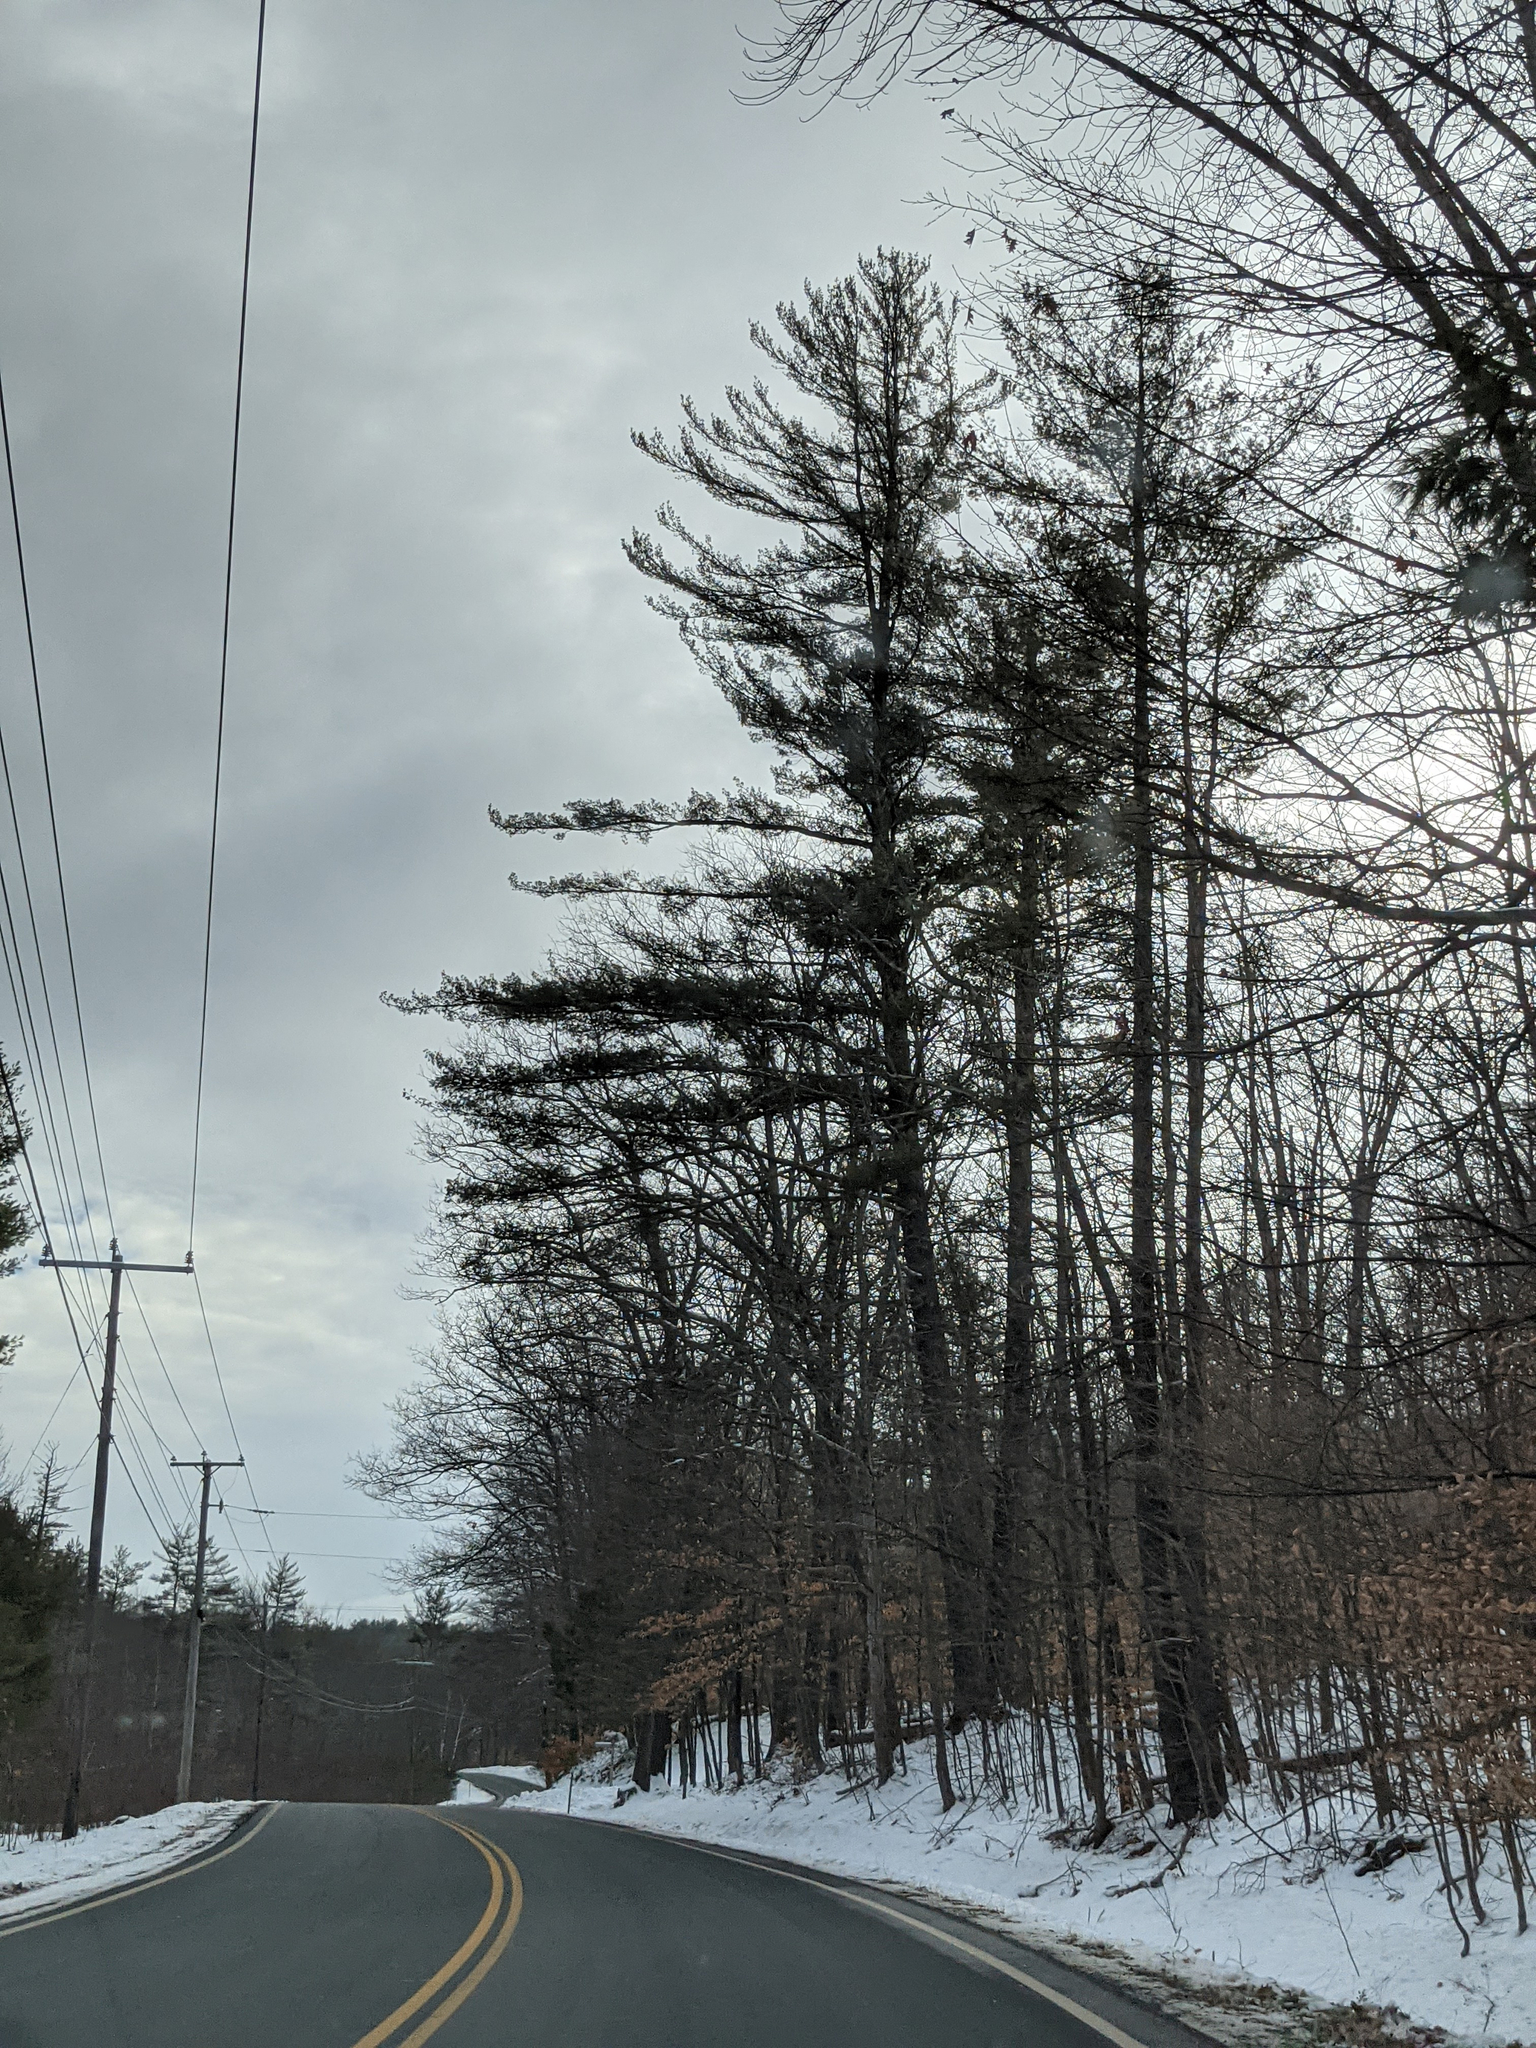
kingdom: Plantae
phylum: Tracheophyta
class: Pinopsida
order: Pinales
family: Pinaceae
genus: Pinus
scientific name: Pinus strobus
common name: Weymouth pine
